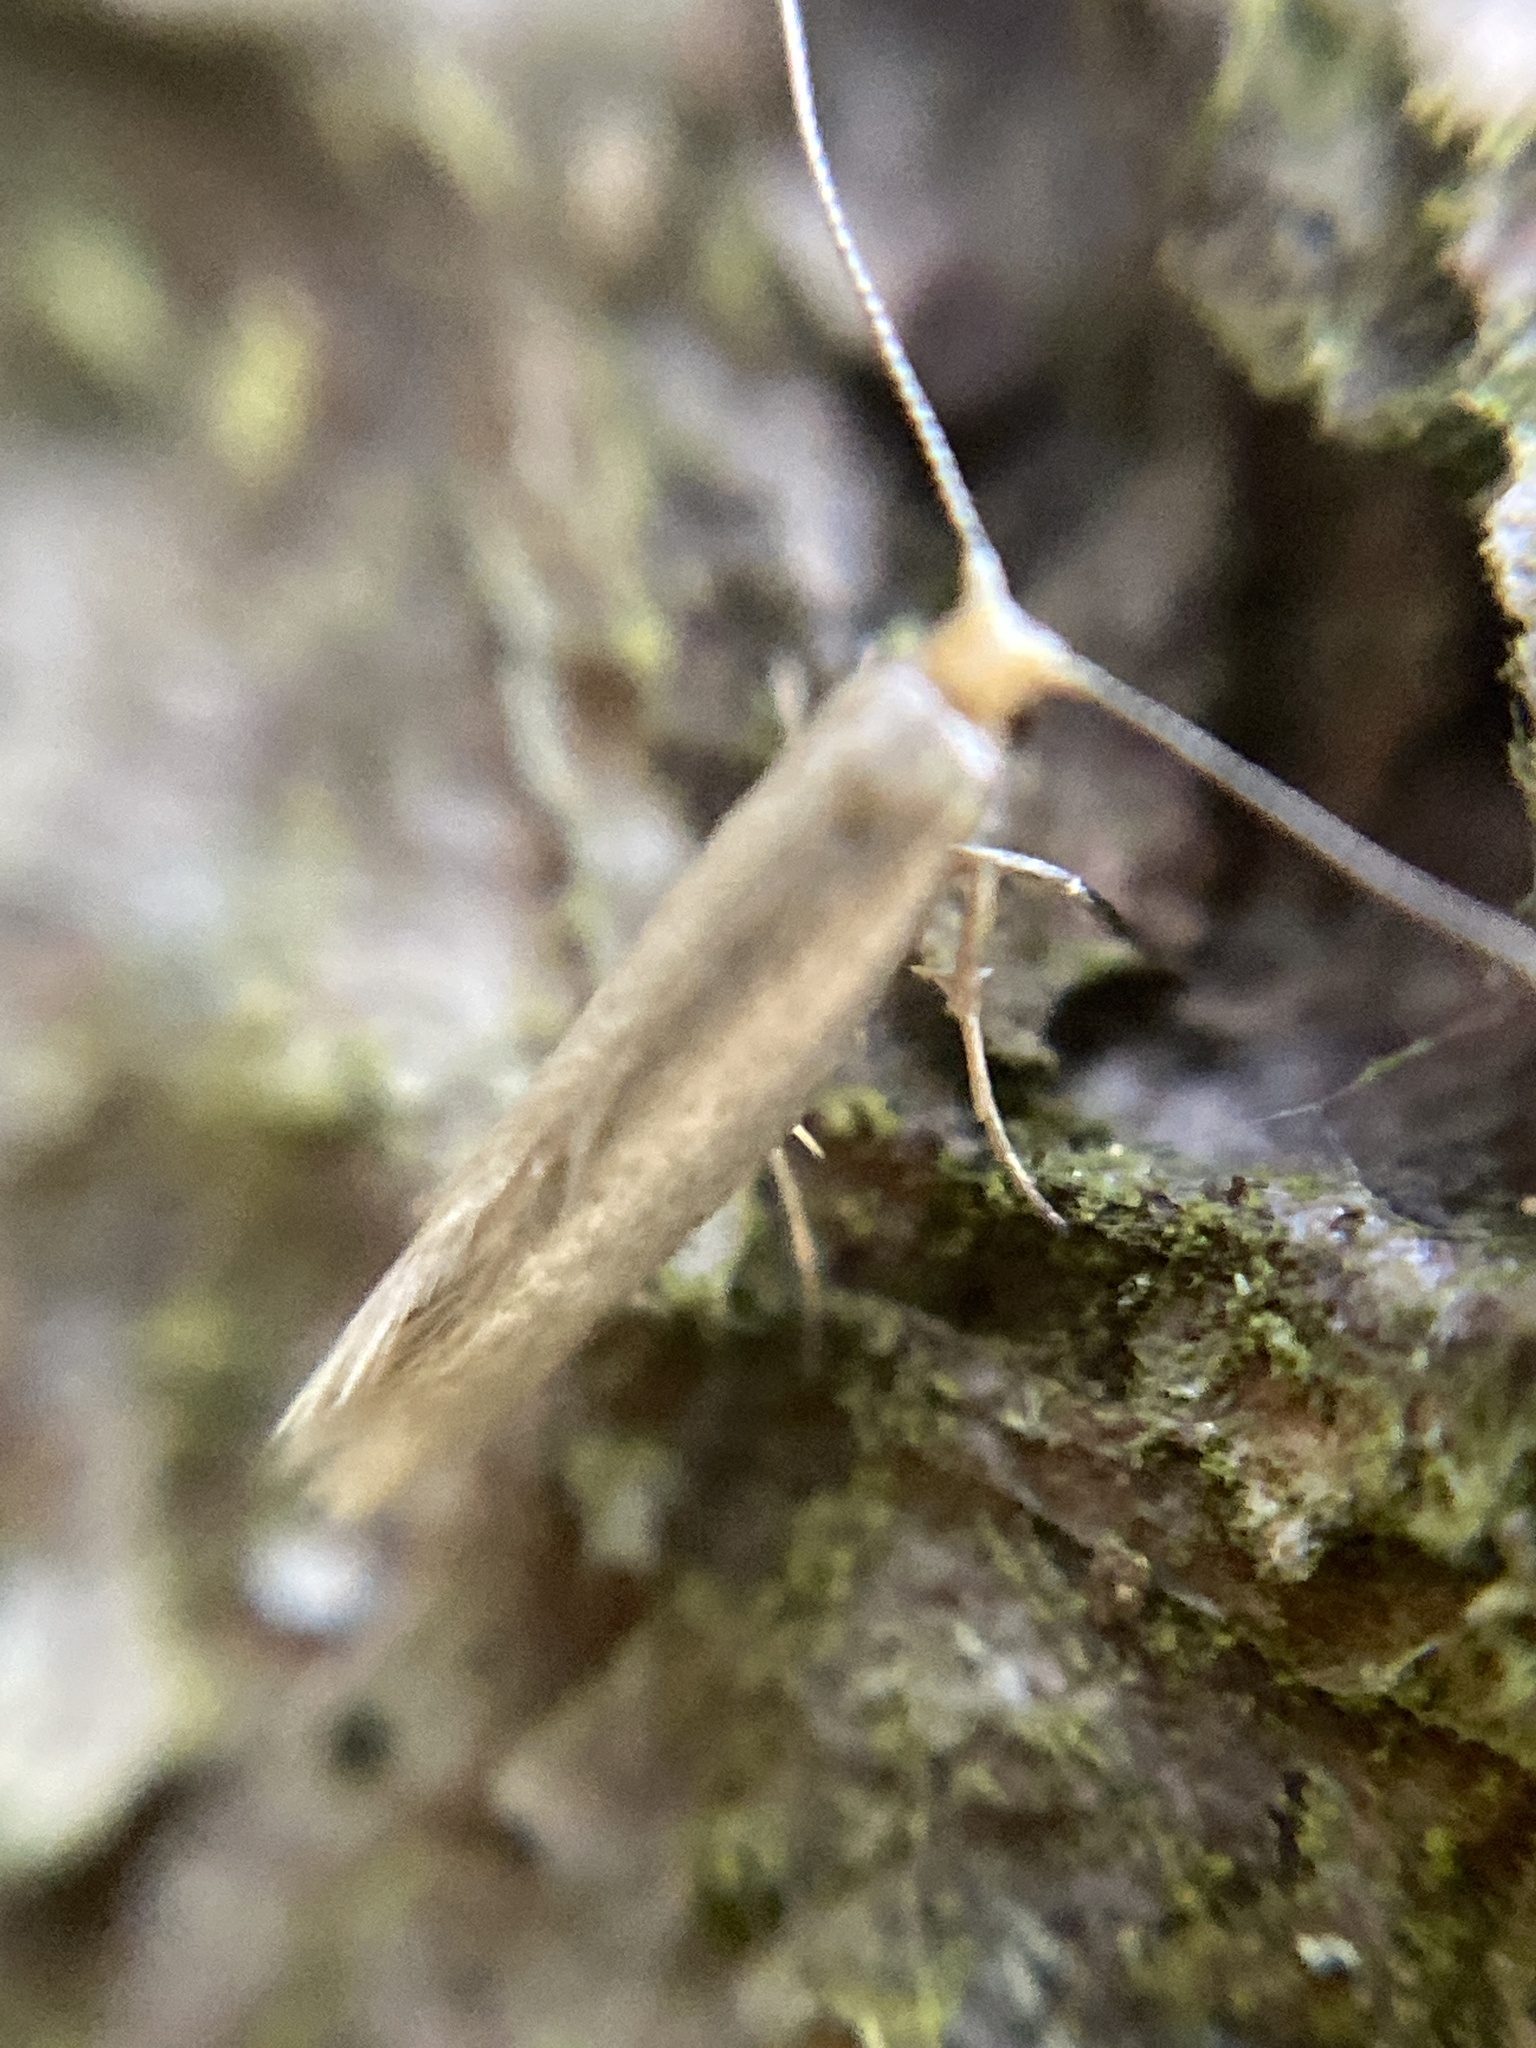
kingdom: Animalia
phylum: Arthropoda
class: Insecta
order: Lepidoptera
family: Adelidae
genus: Nematopogon
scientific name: Nematopogon adansoniella
